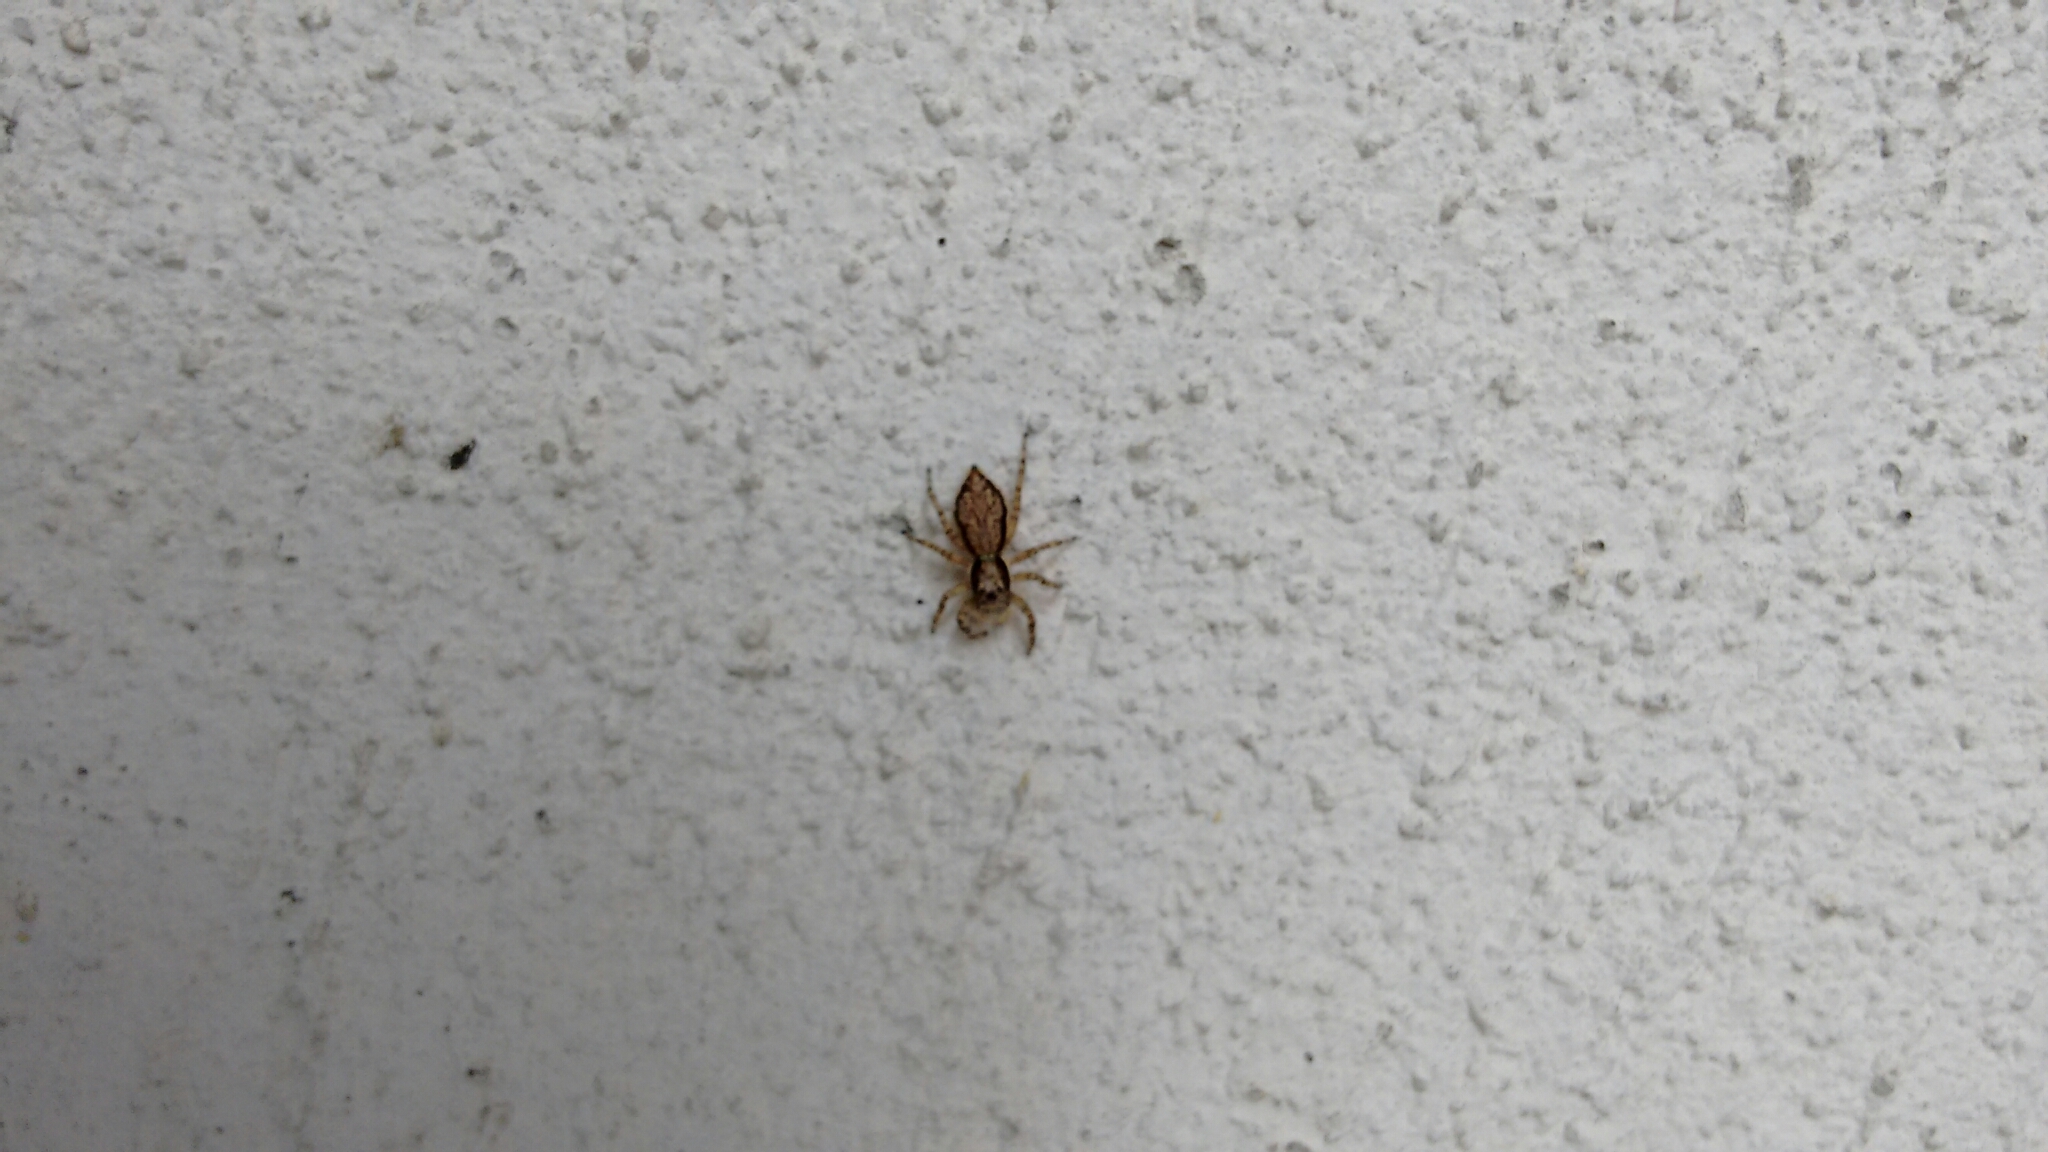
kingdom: Animalia
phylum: Arthropoda
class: Arachnida
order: Araneae
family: Salticidae
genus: Menemerus
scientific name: Menemerus bivittatus
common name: Gray wall jumper
